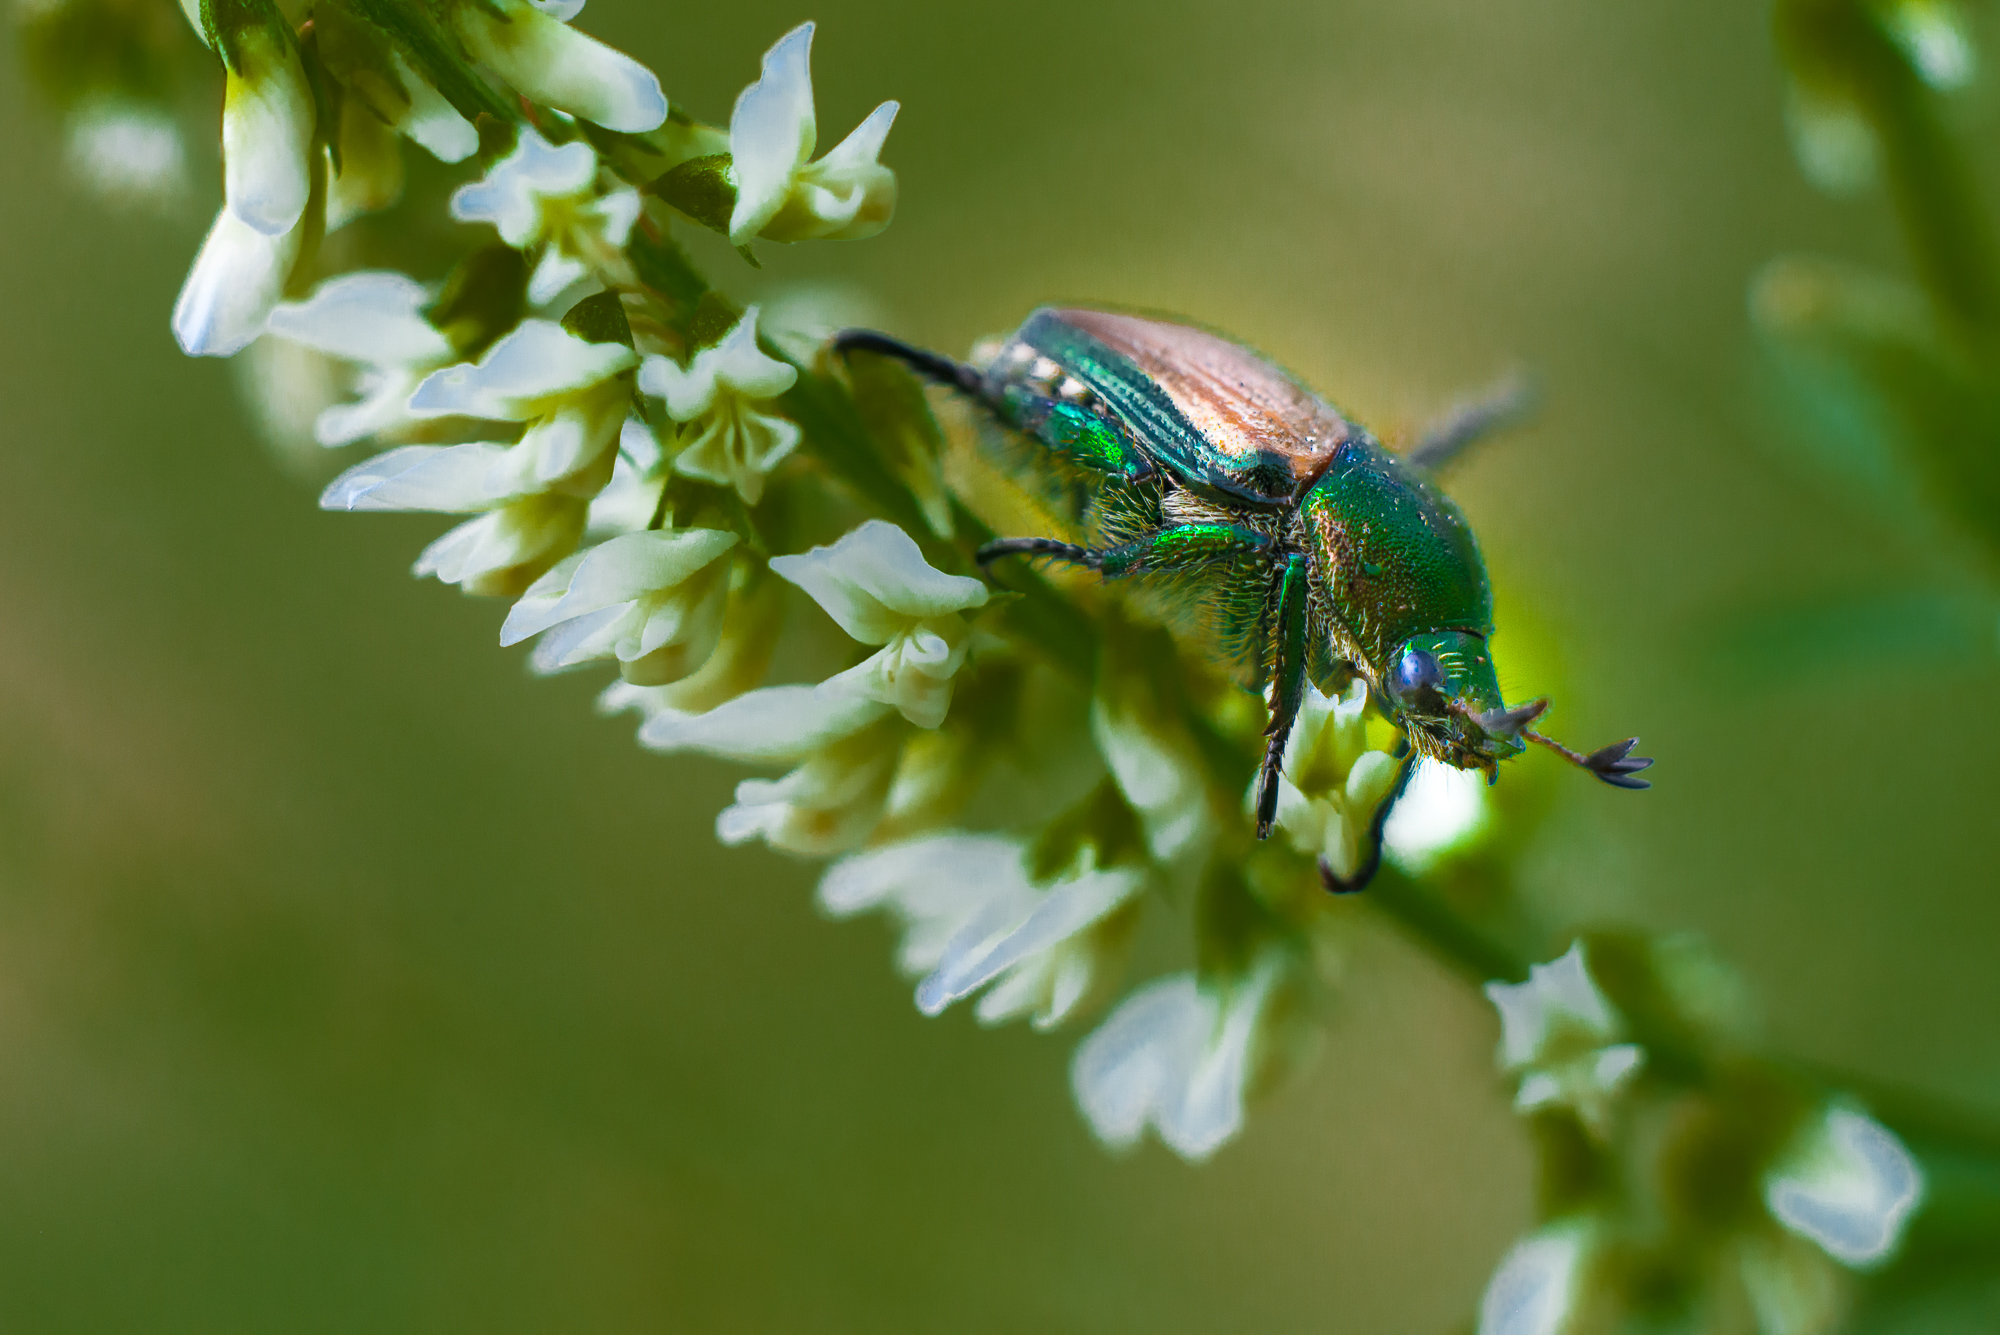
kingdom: Animalia
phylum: Arthropoda
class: Insecta
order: Coleoptera
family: Scarabaeidae
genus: Popillia
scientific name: Popillia japonica
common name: Japanese beetle
